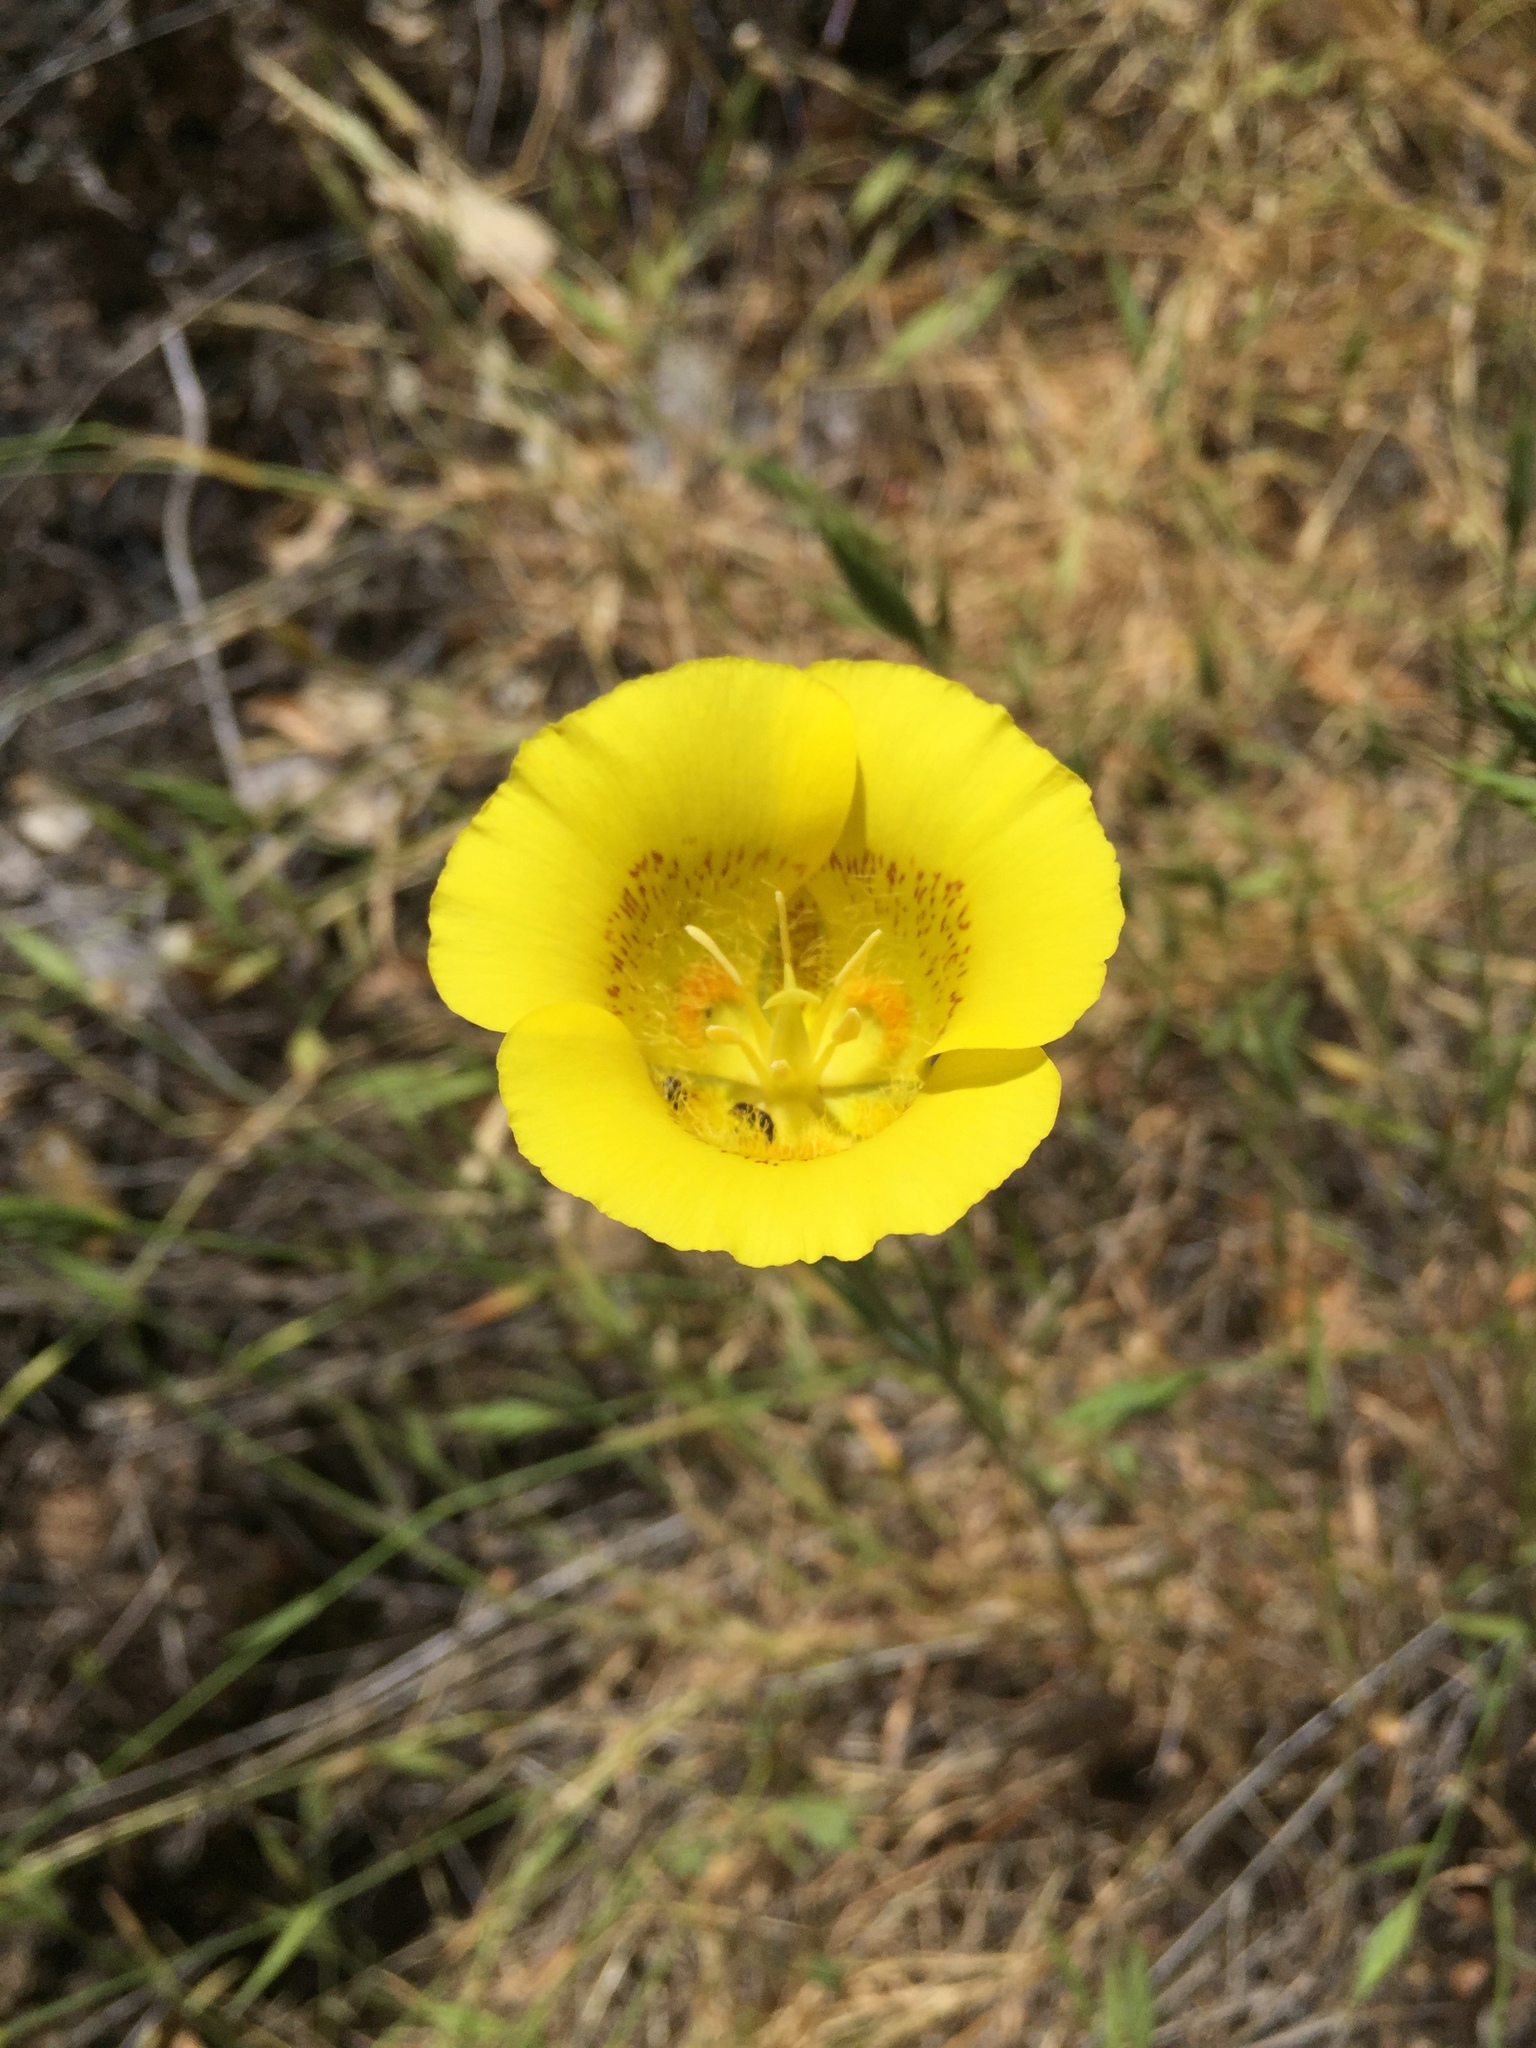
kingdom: Plantae
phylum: Tracheophyta
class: Liliopsida
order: Liliales
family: Liliaceae
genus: Calochortus
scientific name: Calochortus luteus
